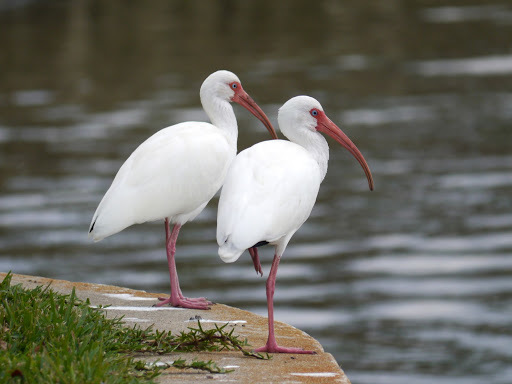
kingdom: Animalia
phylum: Chordata
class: Aves
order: Pelecaniformes
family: Threskiornithidae
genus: Eudocimus
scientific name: Eudocimus albus
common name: White ibis
